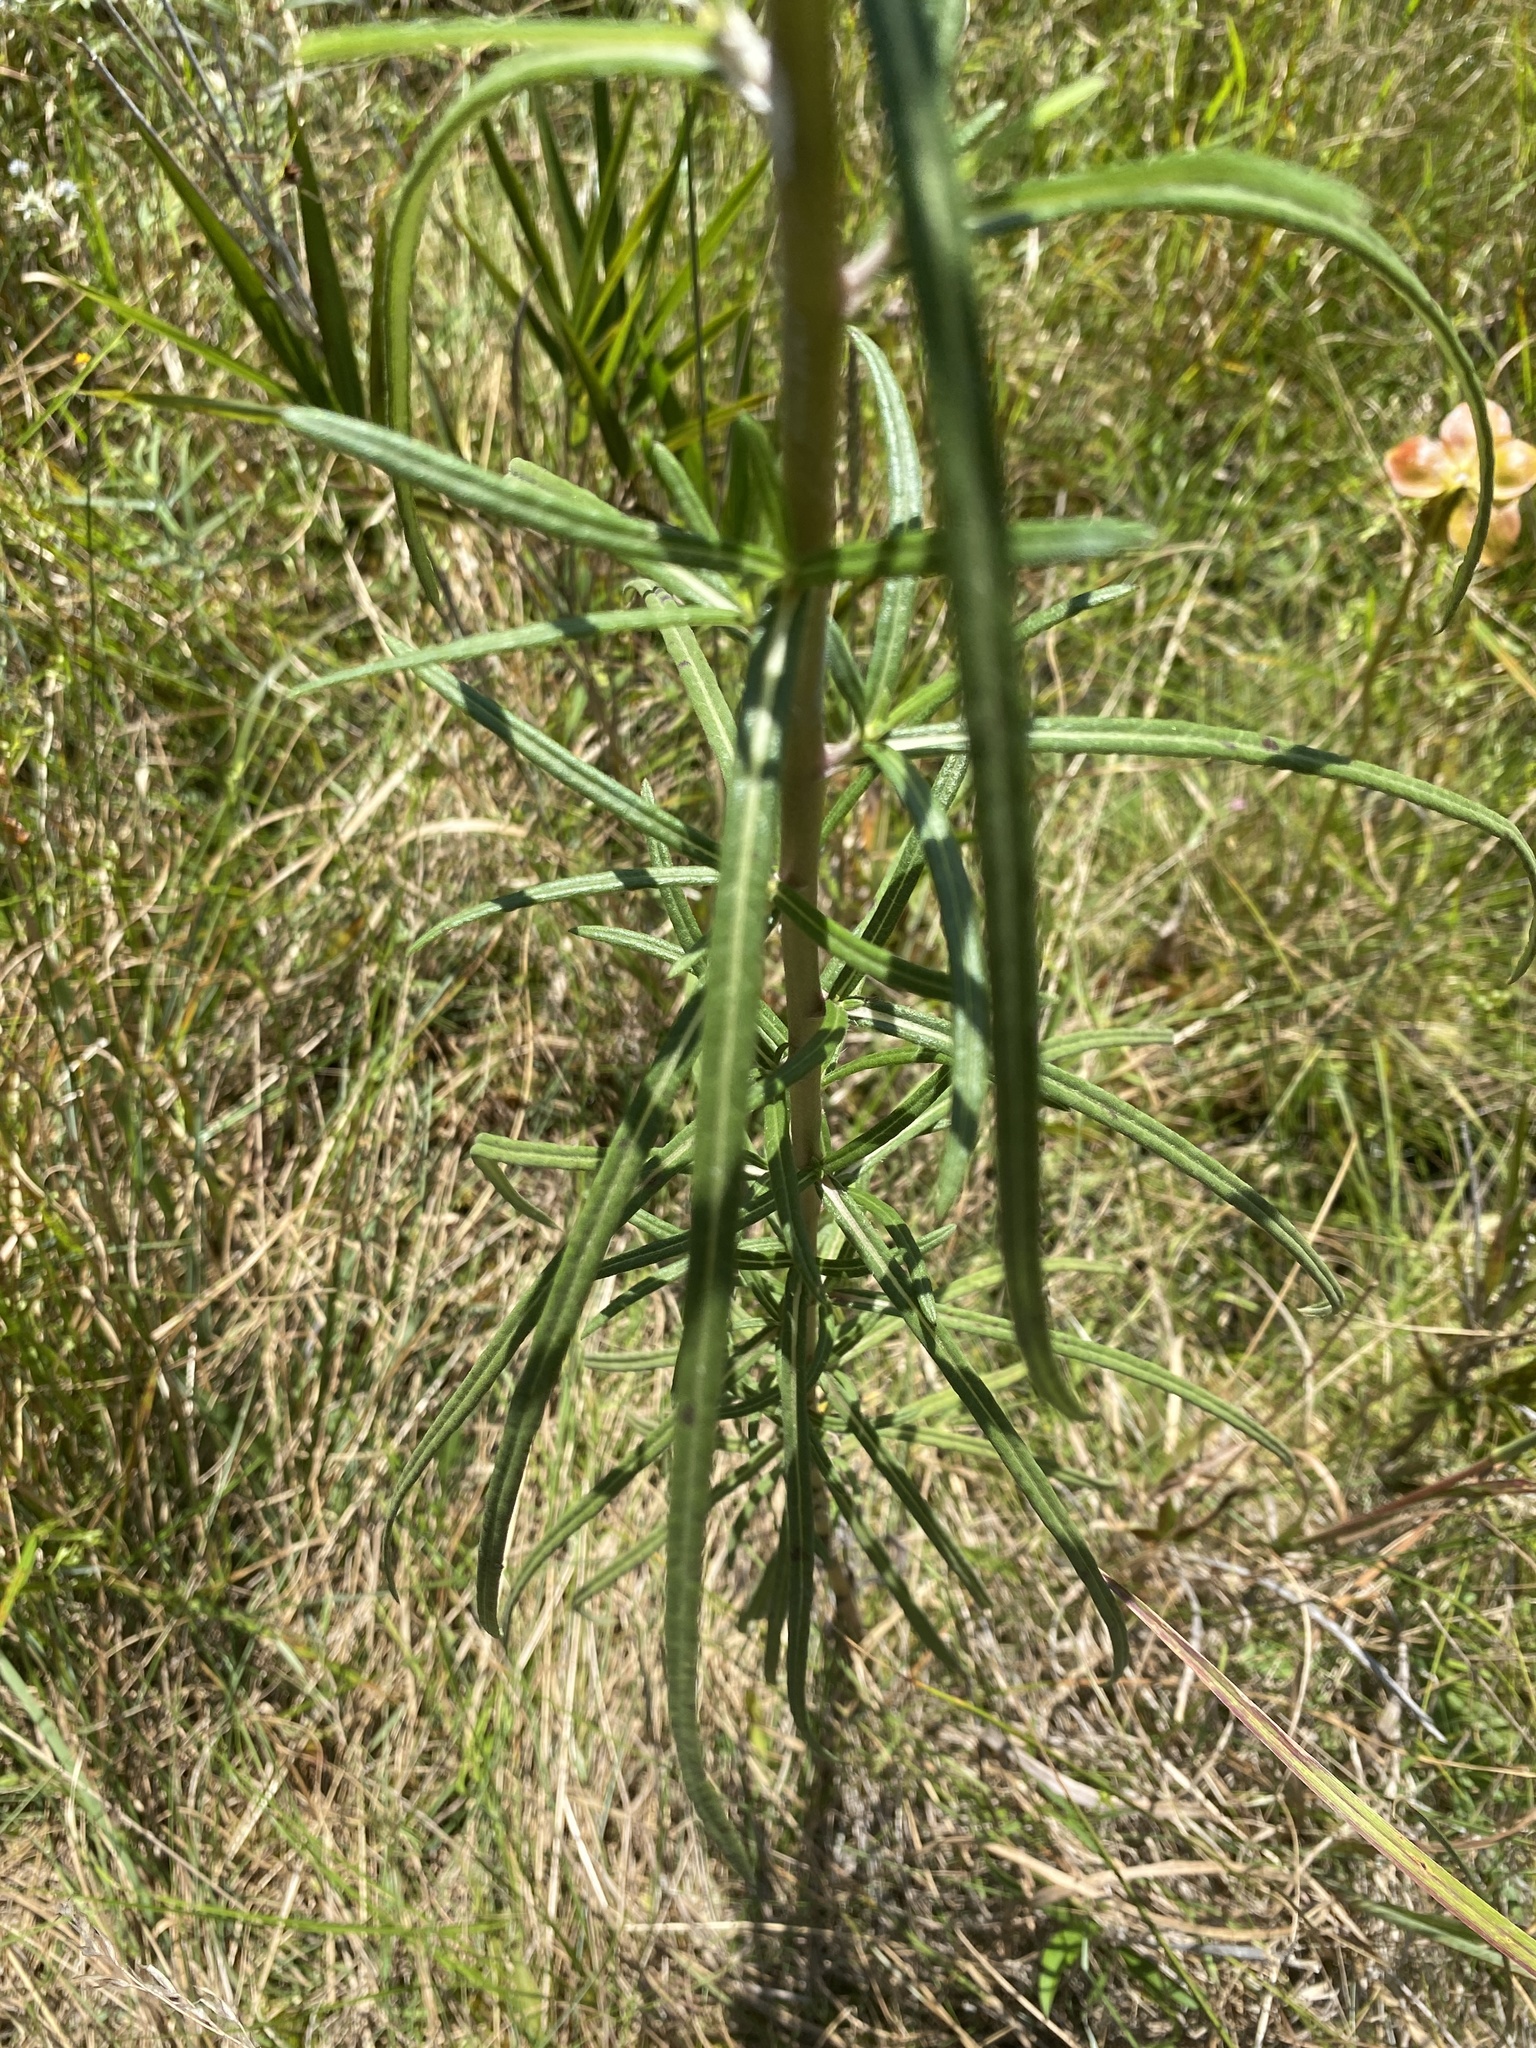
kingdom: Plantae
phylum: Tracheophyta
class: Magnoliopsida
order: Asterales
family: Asteraceae
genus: Helianthus
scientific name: Helianthus angustifolius
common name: Swamp sunflower
